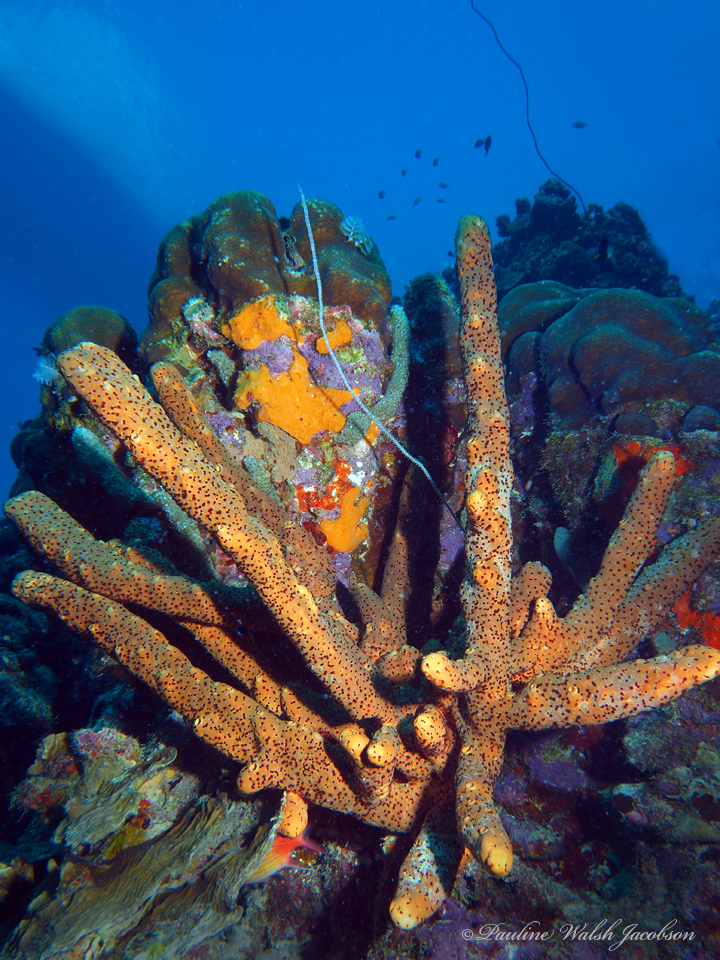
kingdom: Animalia
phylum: Porifera
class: Demospongiae
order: Agelasida
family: Agelasidae
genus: Agelas
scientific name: Agelas conifera
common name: Brown tube sponge
